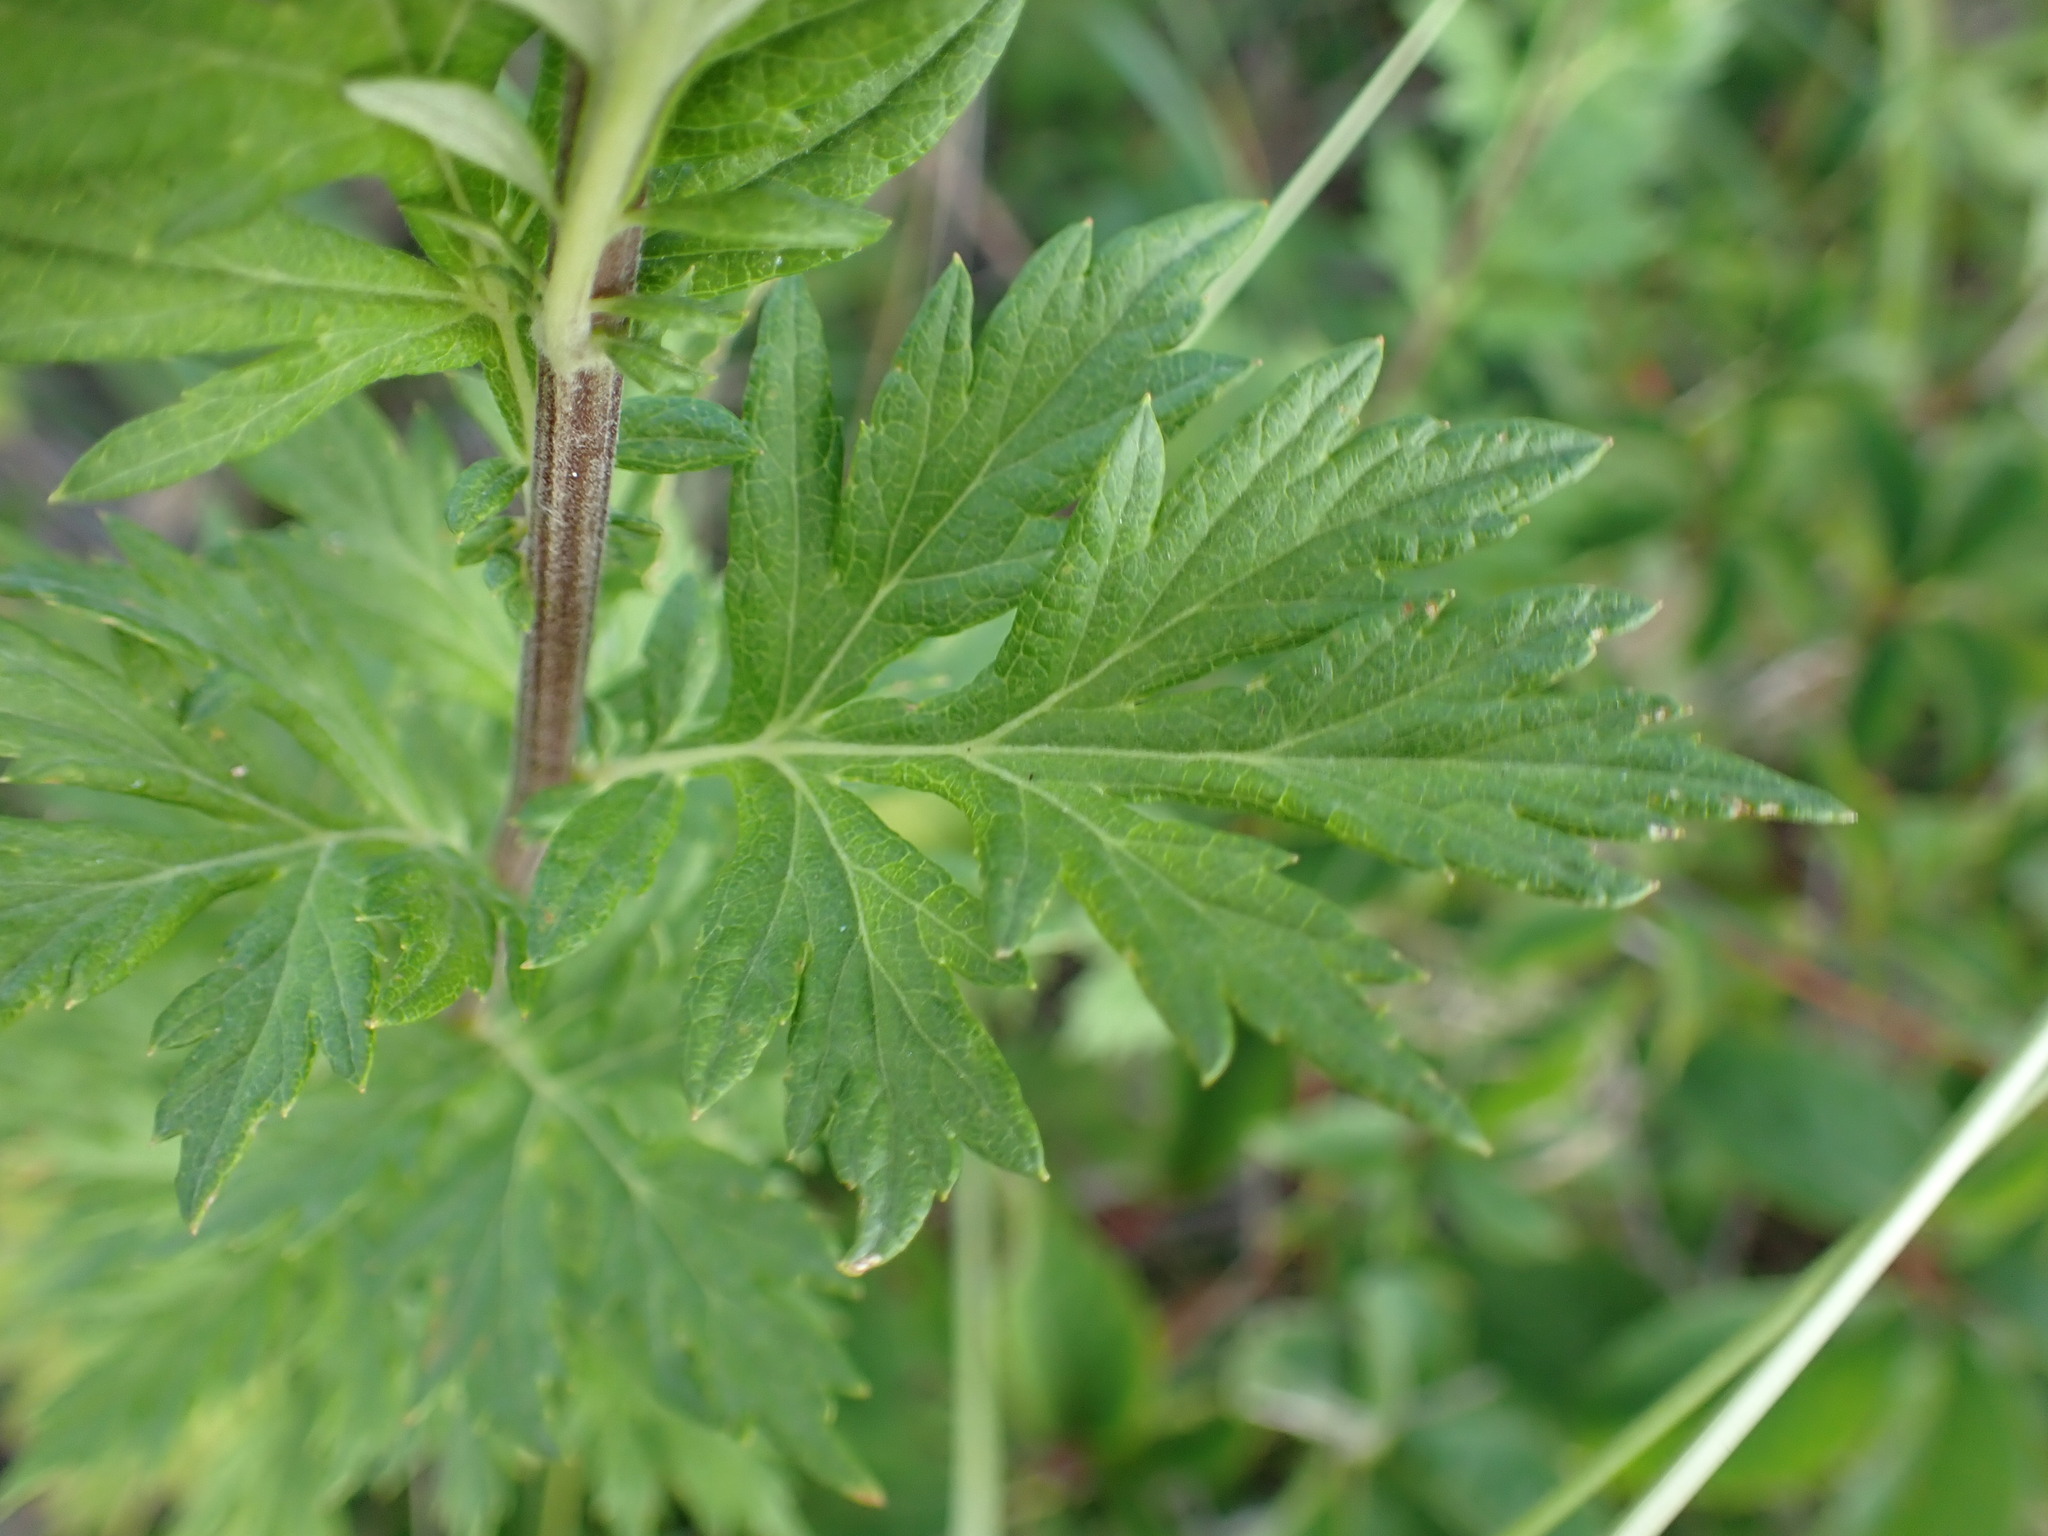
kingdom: Plantae
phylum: Tracheophyta
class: Magnoliopsida
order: Asterales
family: Asteraceae
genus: Artemisia
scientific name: Artemisia vulgaris
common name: Mugwort
